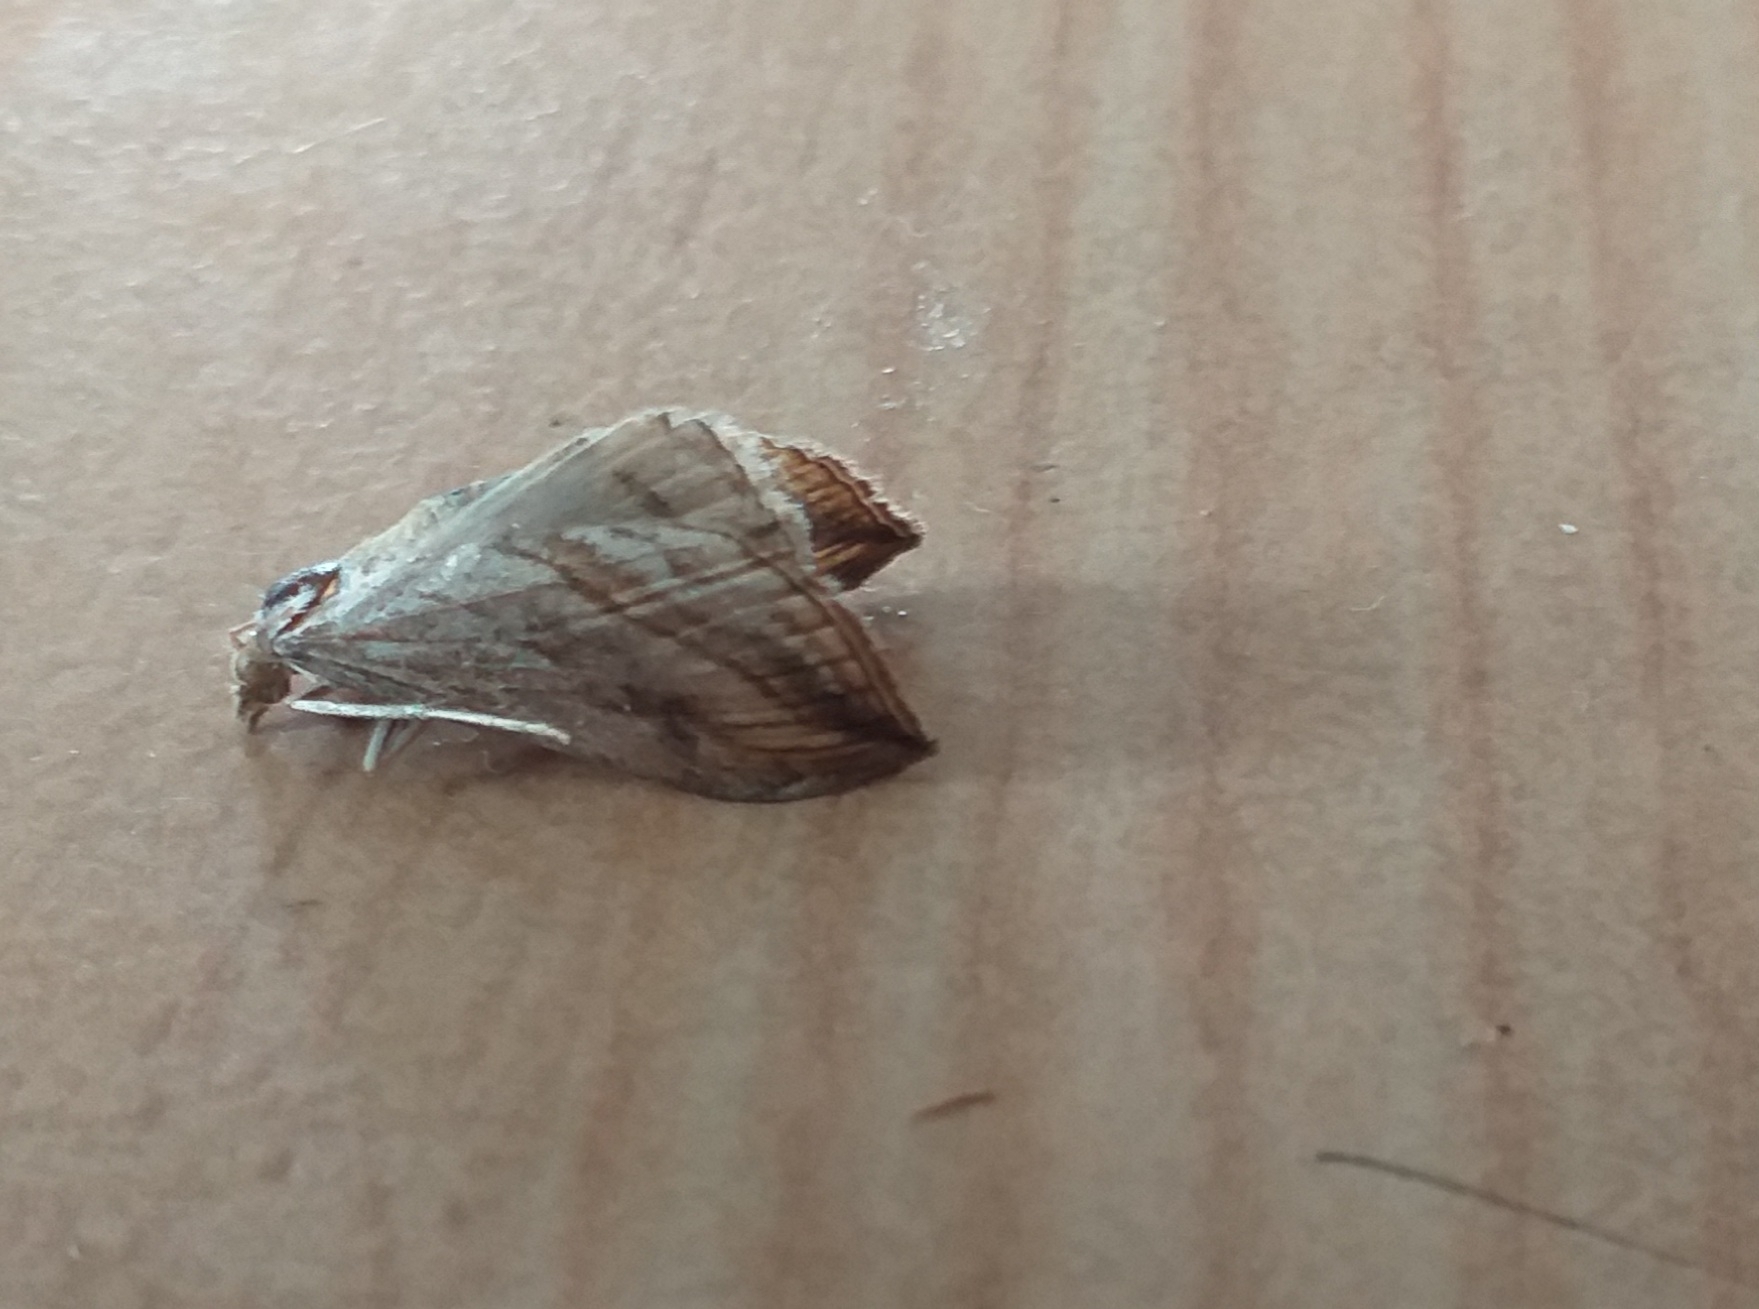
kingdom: Animalia
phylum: Arthropoda
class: Insecta
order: Lepidoptera
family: Crambidae
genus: Evergestis
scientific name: Evergestis forficalis
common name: Garden pebble
